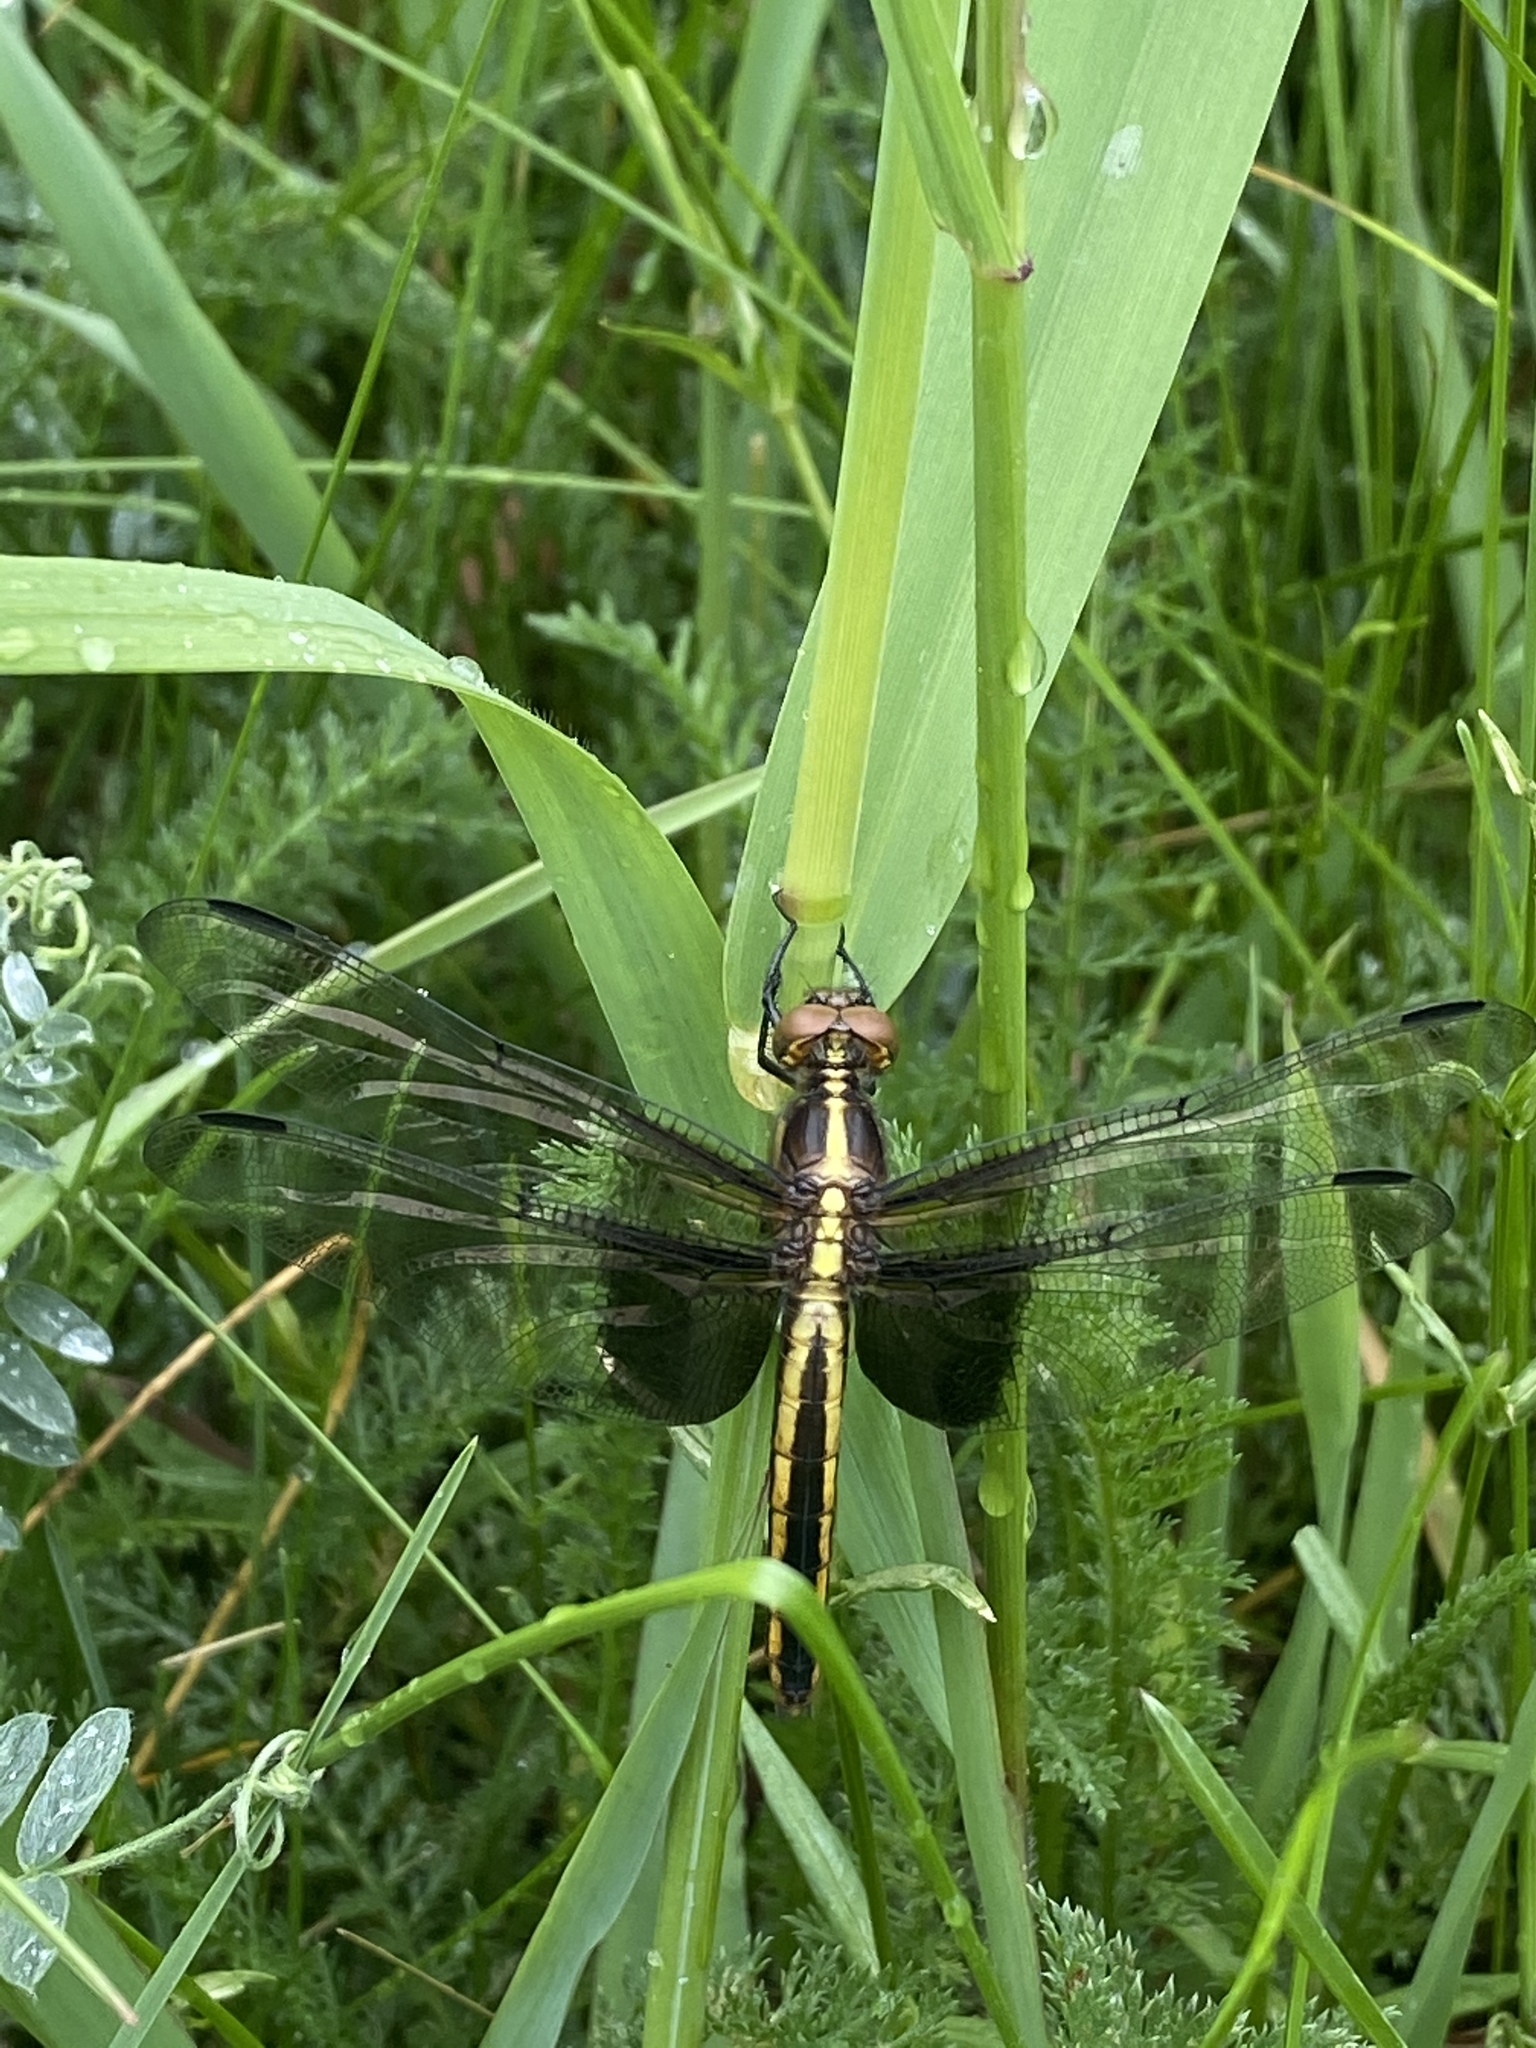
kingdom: Animalia
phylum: Arthropoda
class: Insecta
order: Odonata
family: Libellulidae
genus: Libellula
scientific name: Libellula luctuosa
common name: Widow skimmer
